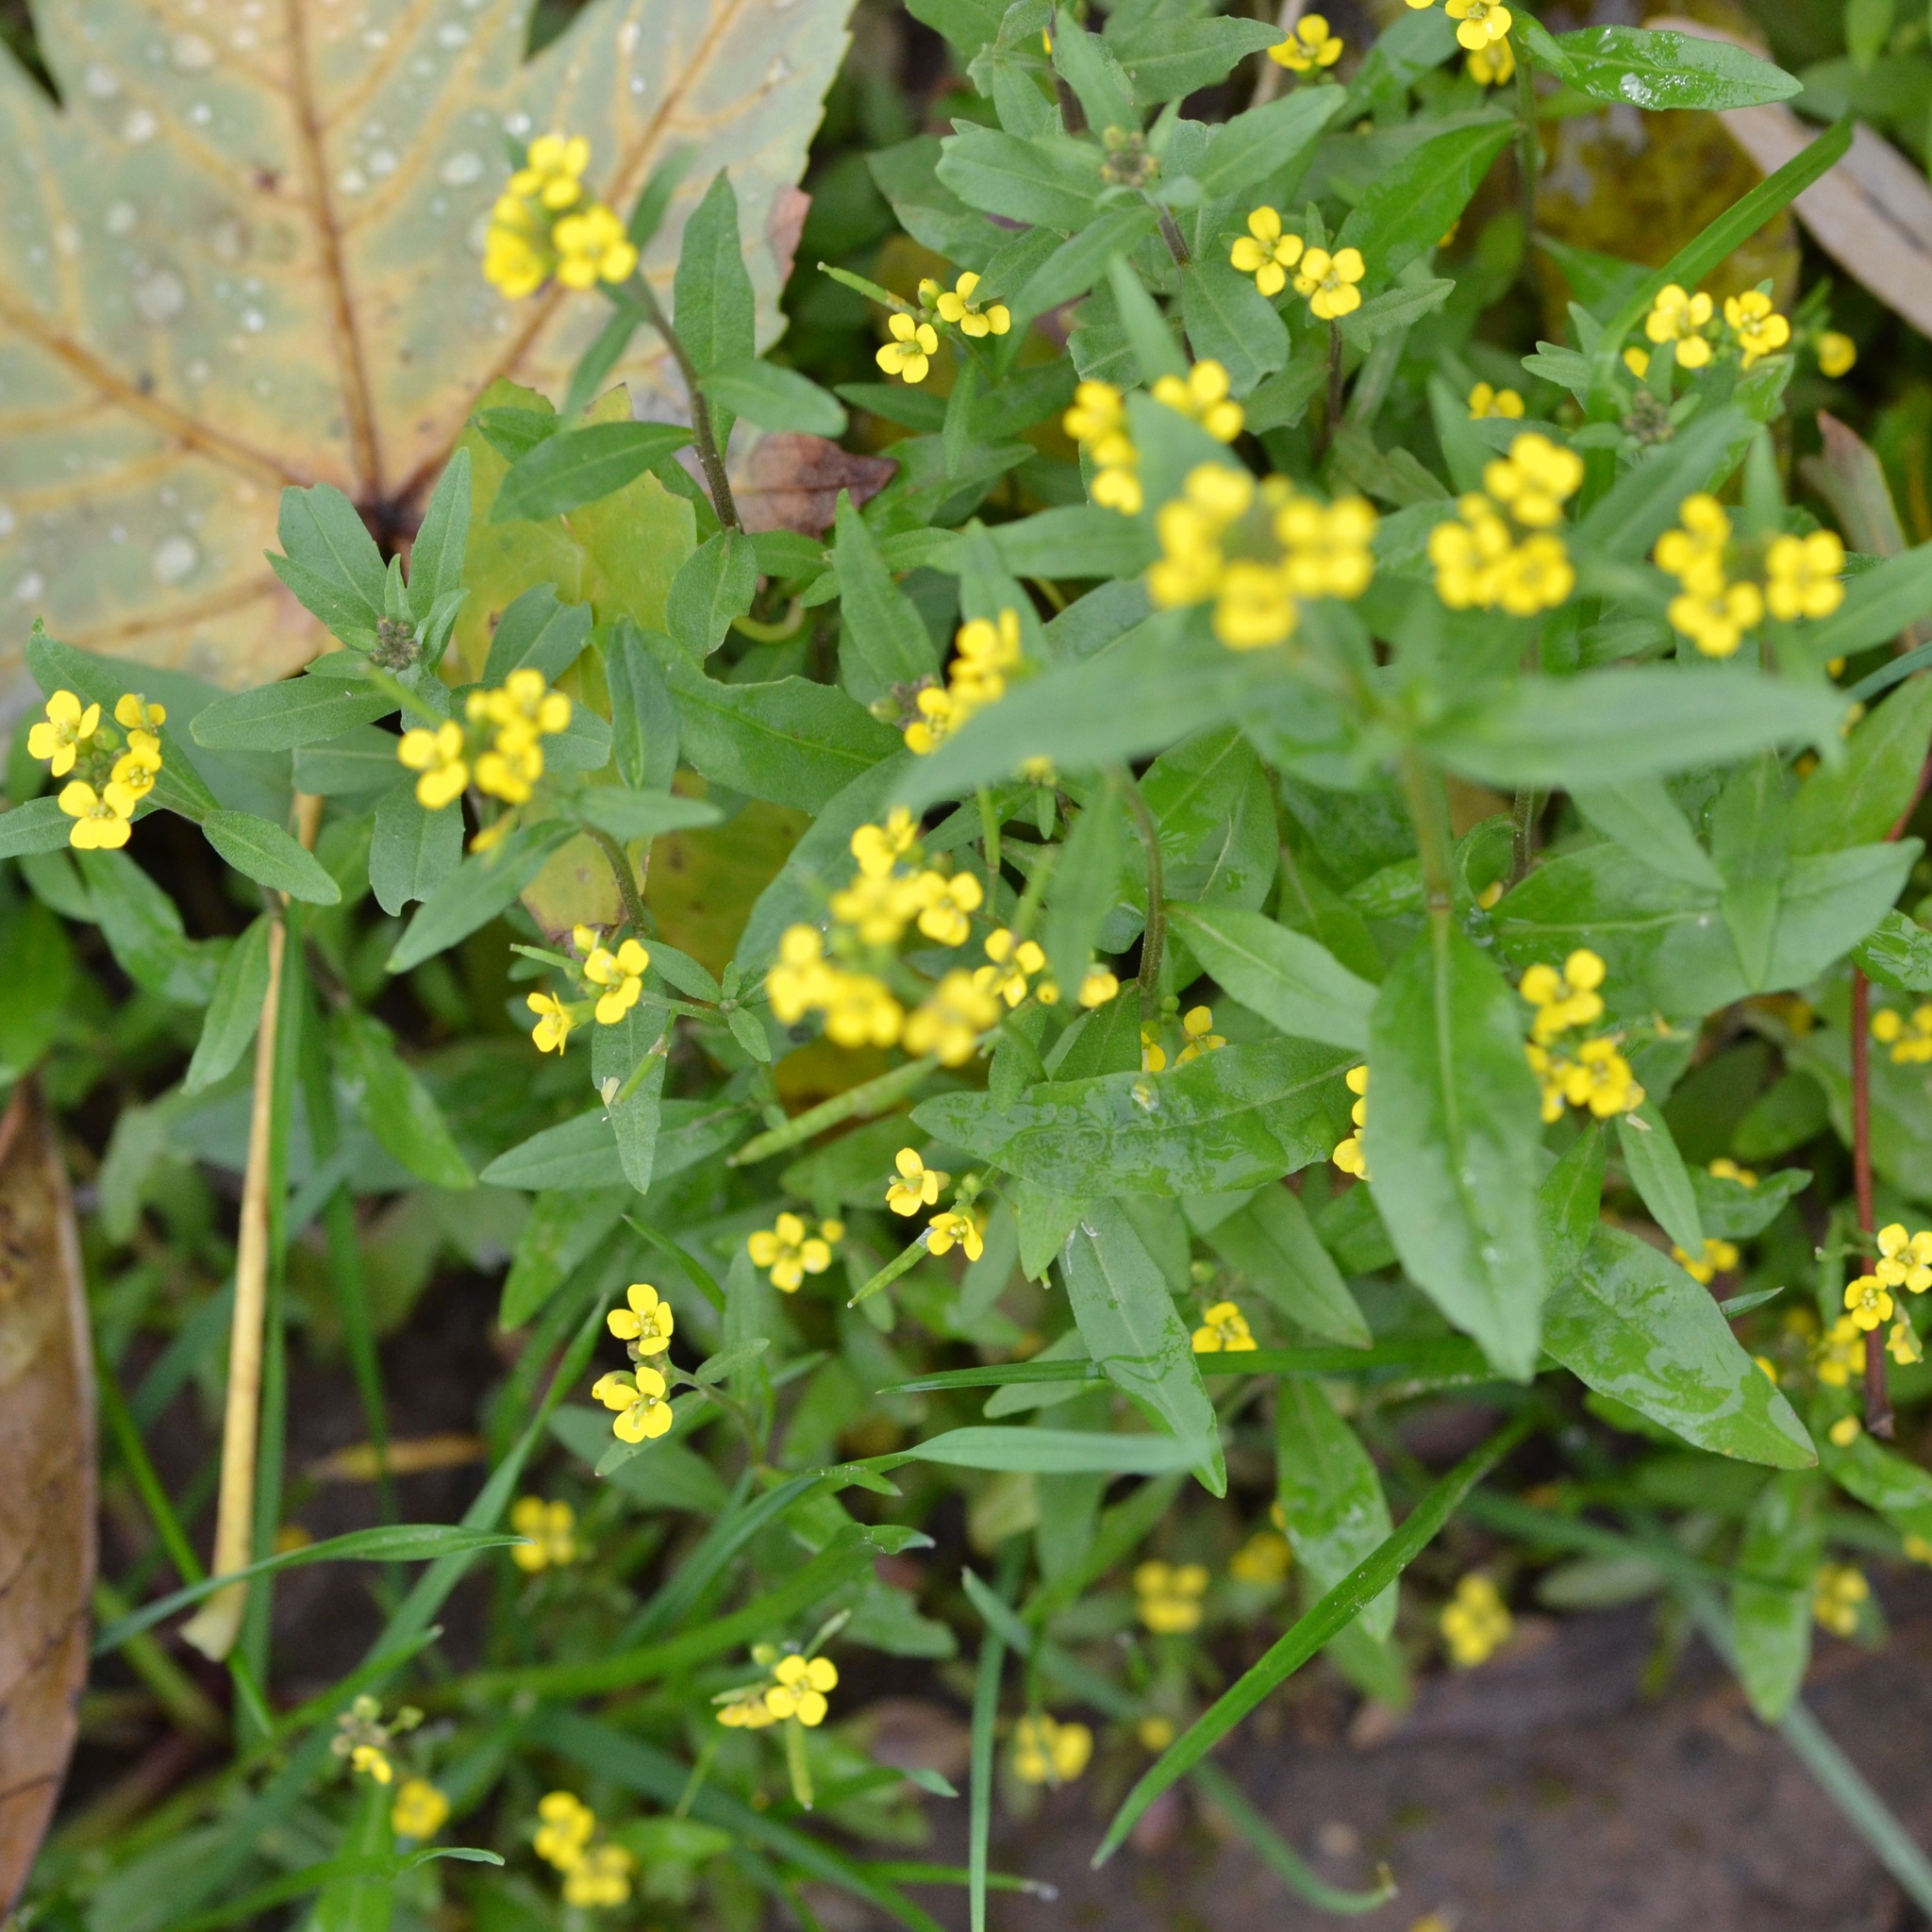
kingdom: Plantae
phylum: Tracheophyta
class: Magnoliopsida
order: Brassicales
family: Brassicaceae
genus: Erysimum
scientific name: Erysimum cheiranthoides
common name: Treacle mustard
